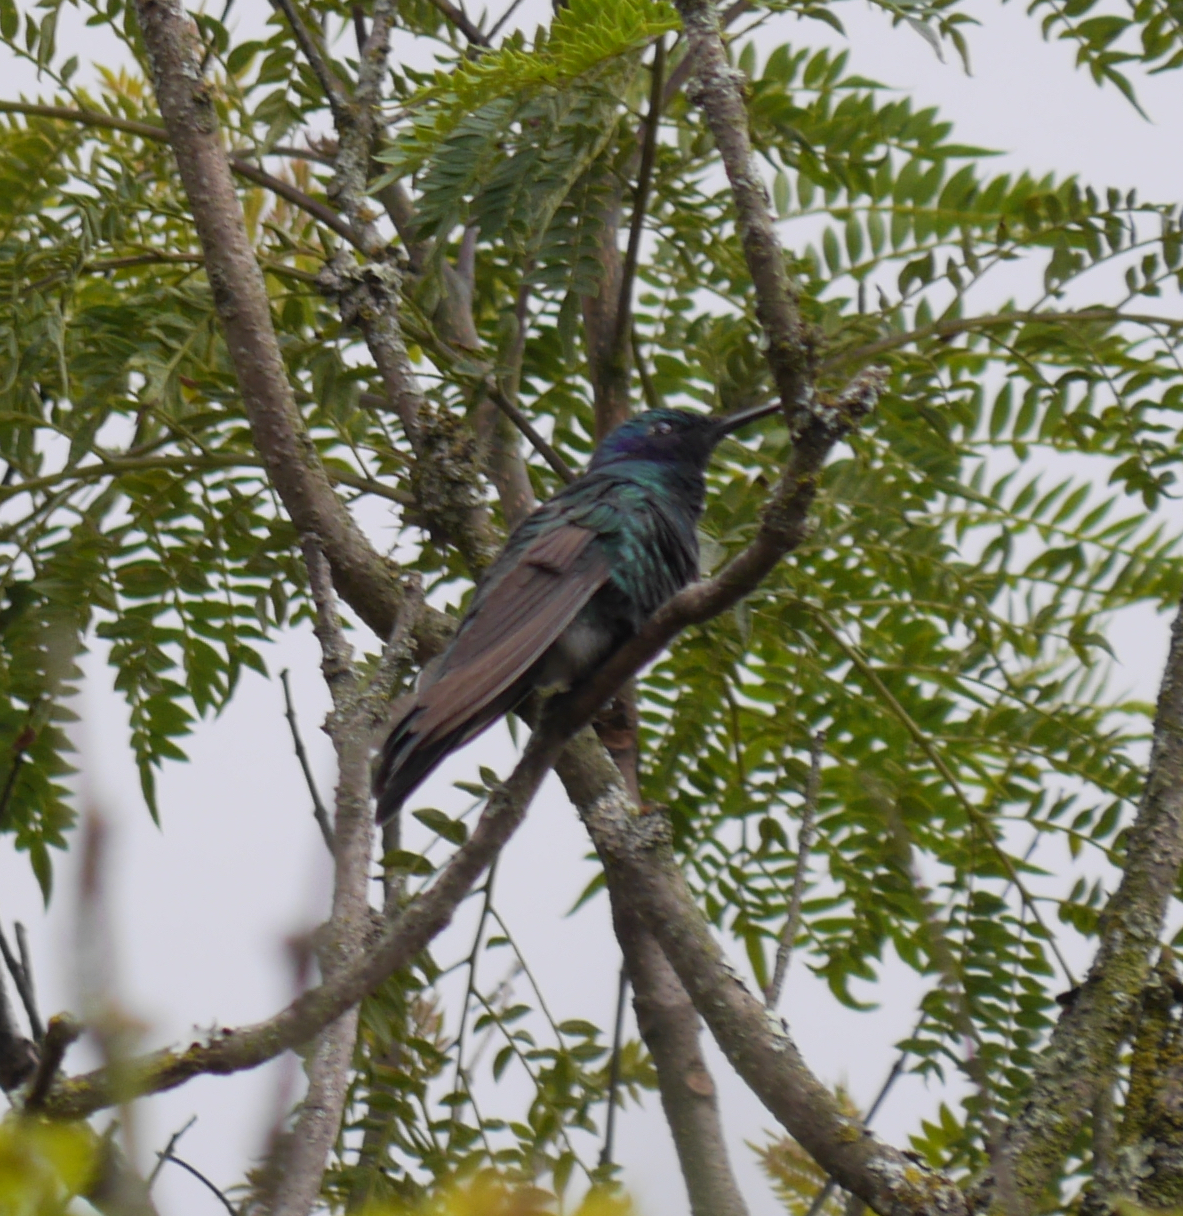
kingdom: Animalia
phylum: Chordata
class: Aves
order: Apodiformes
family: Trochilidae
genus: Colibri
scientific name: Colibri coruscans
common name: Sparkling violetear
